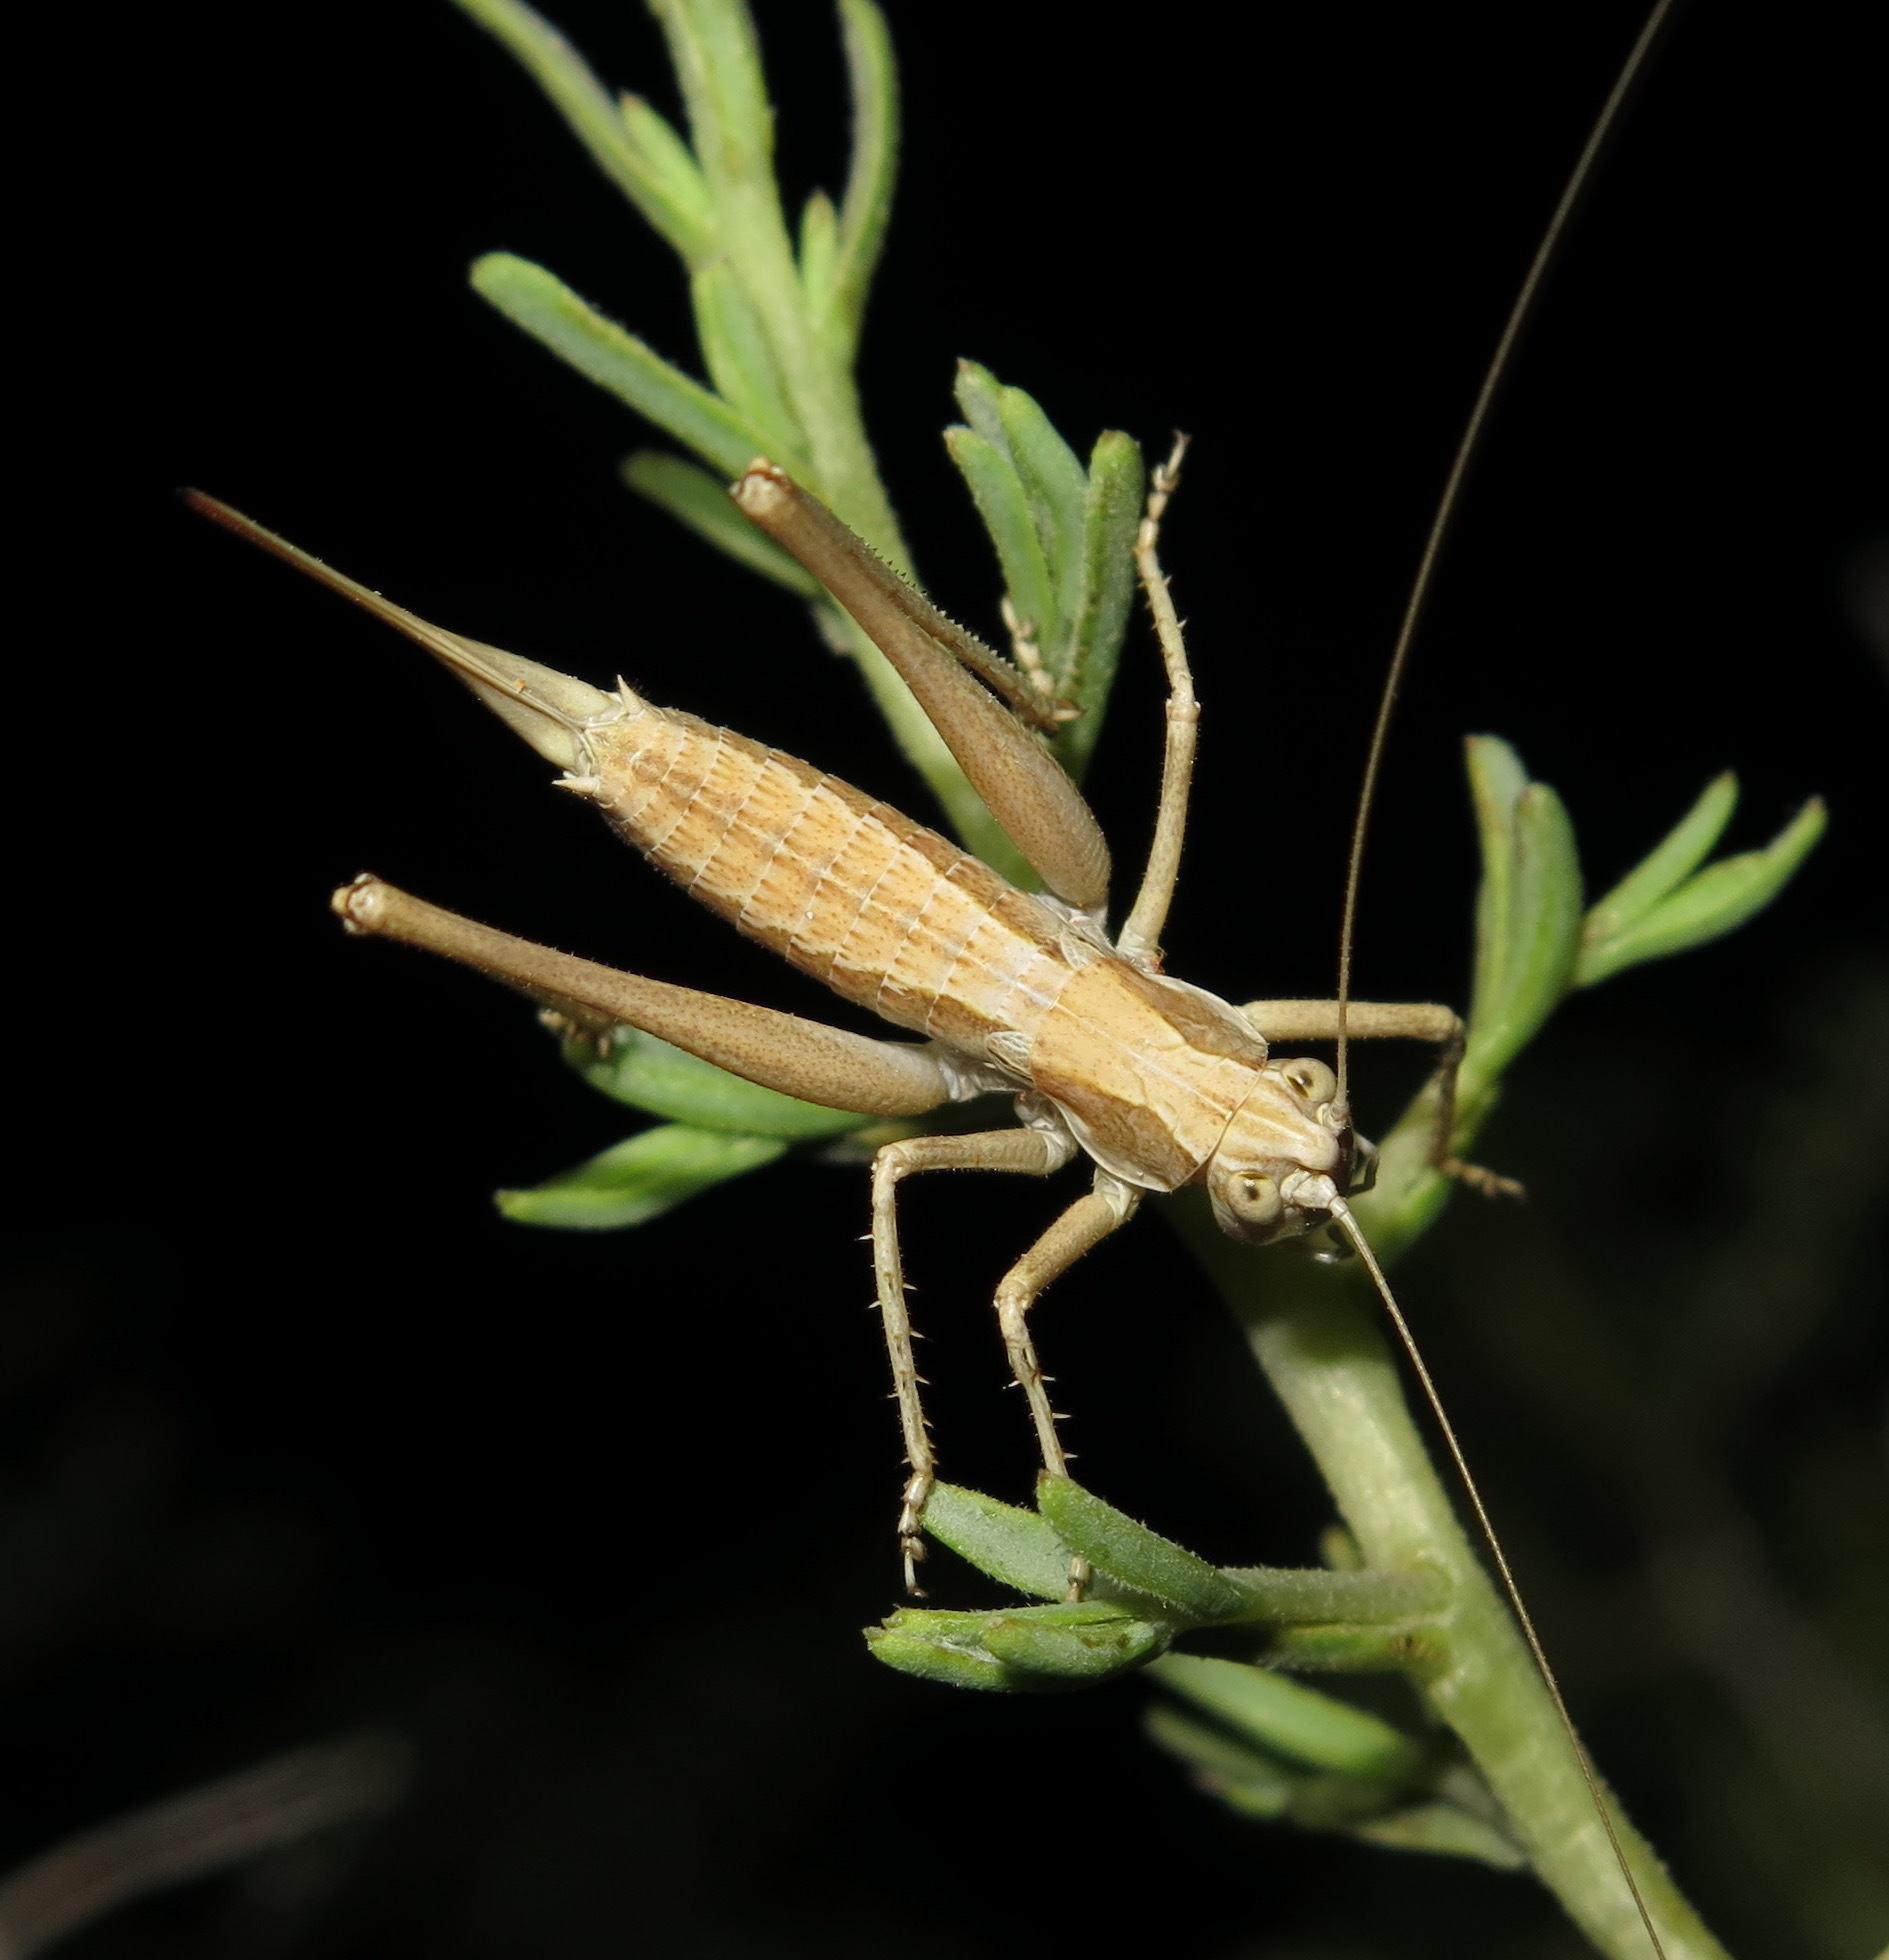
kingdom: Animalia
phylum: Arthropoda
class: Insecta
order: Orthoptera
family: Tettigoniidae
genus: Idiostatus
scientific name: Idiostatus apollo
